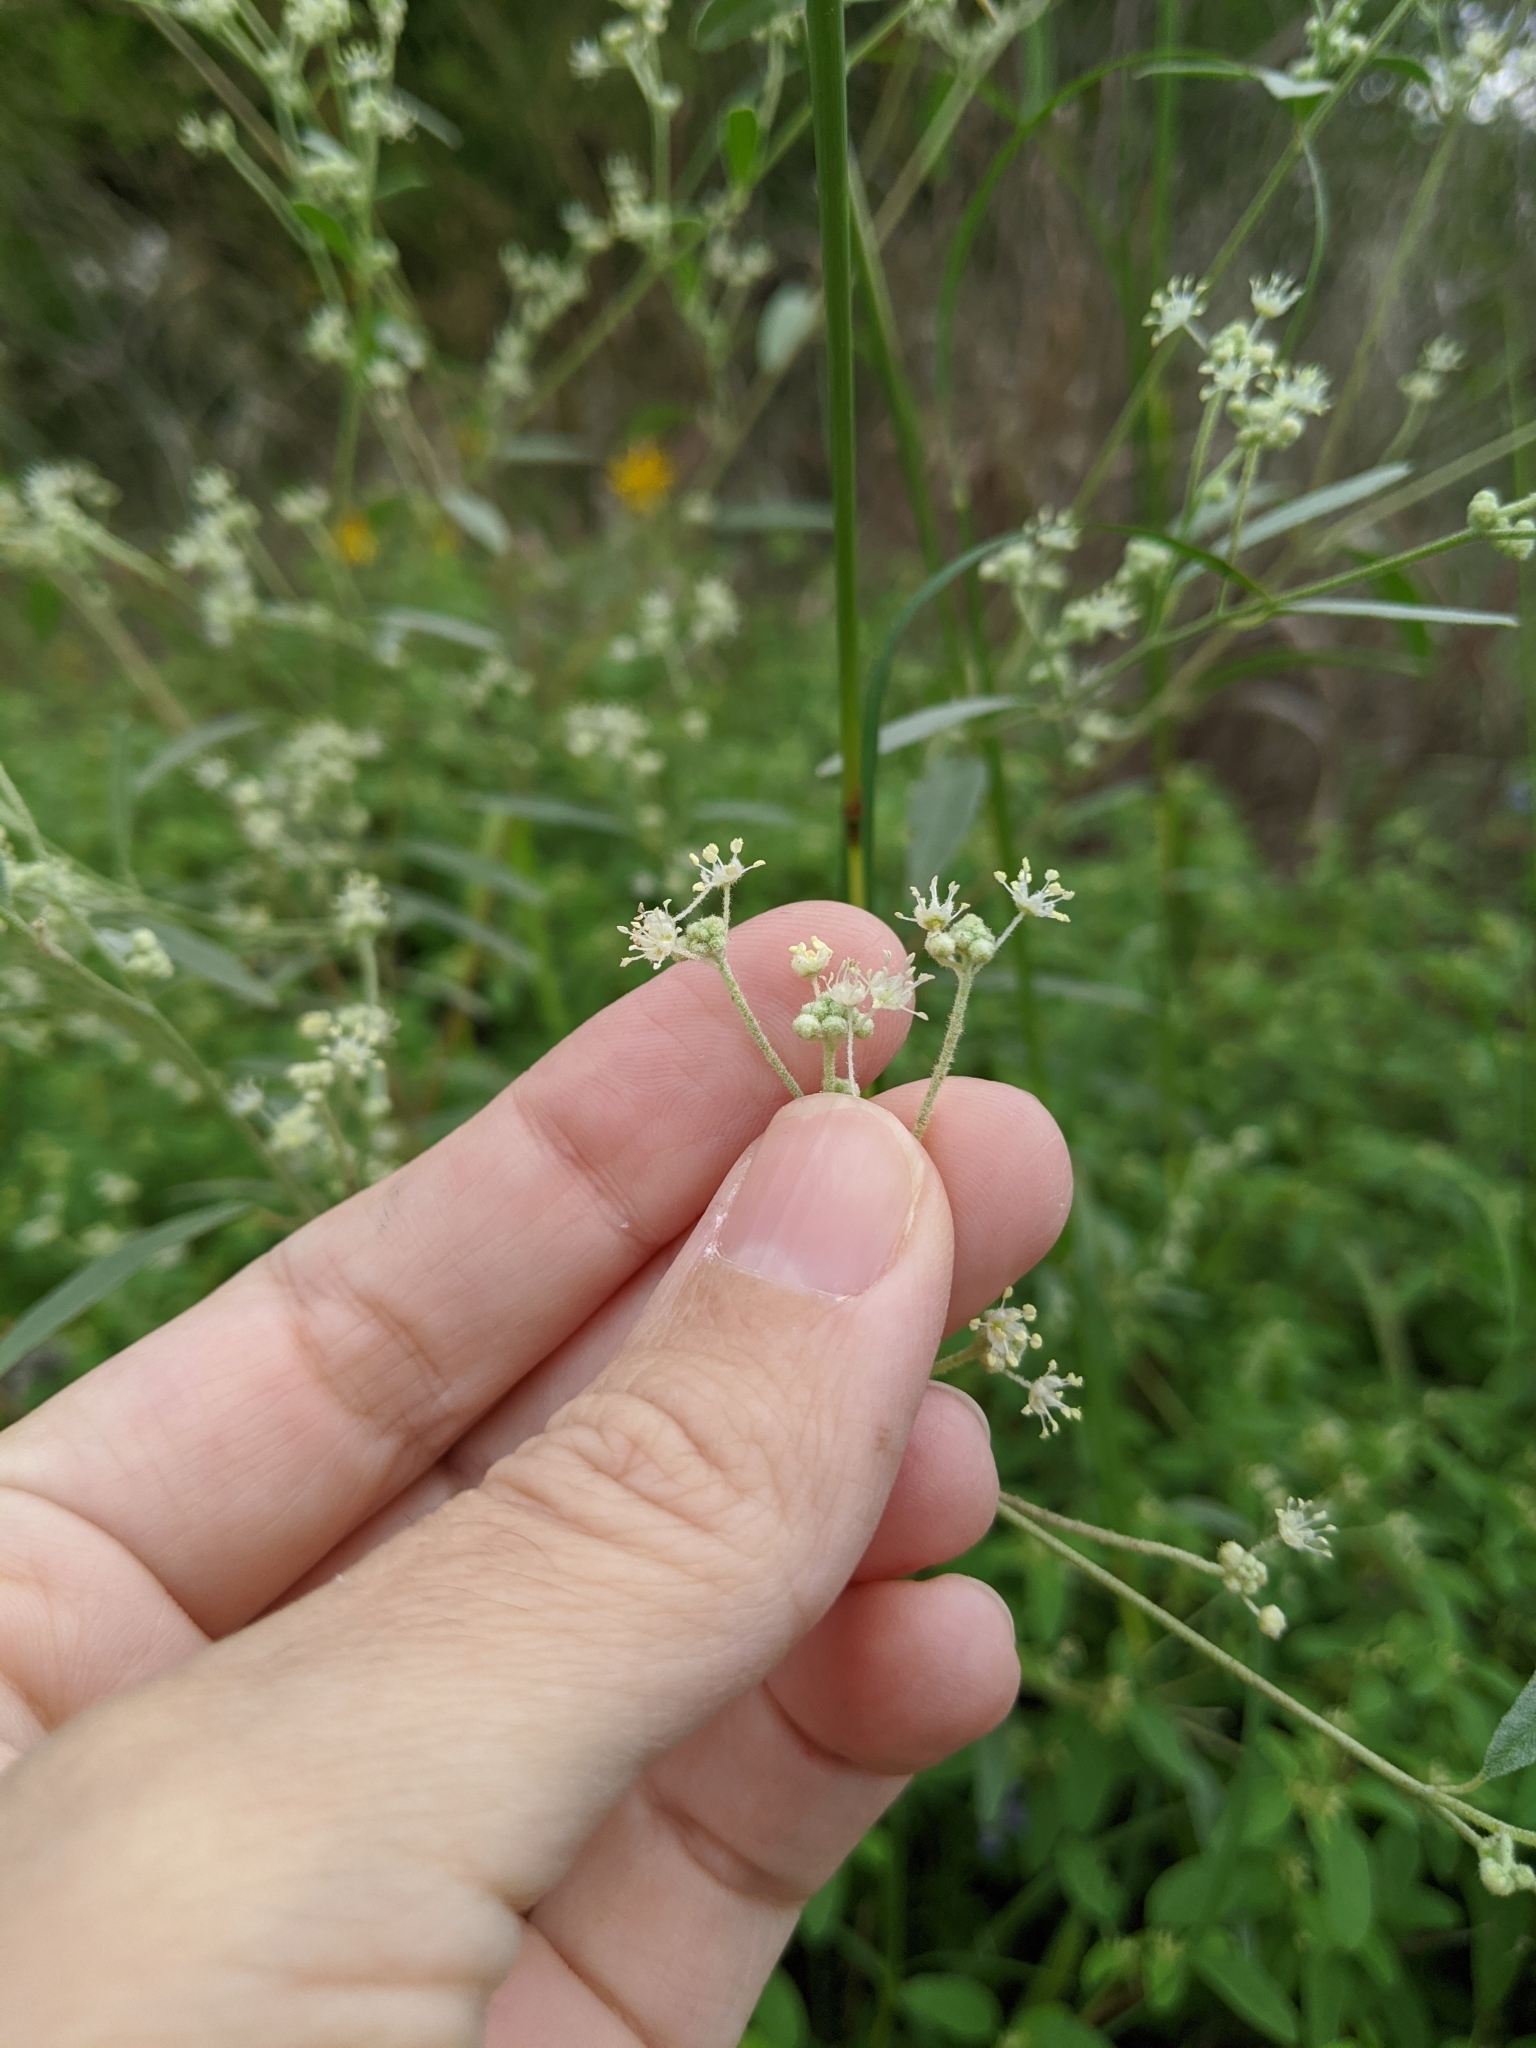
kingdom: Plantae
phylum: Tracheophyta
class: Magnoliopsida
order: Malpighiales
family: Euphorbiaceae
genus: Croton
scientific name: Croton texensis
